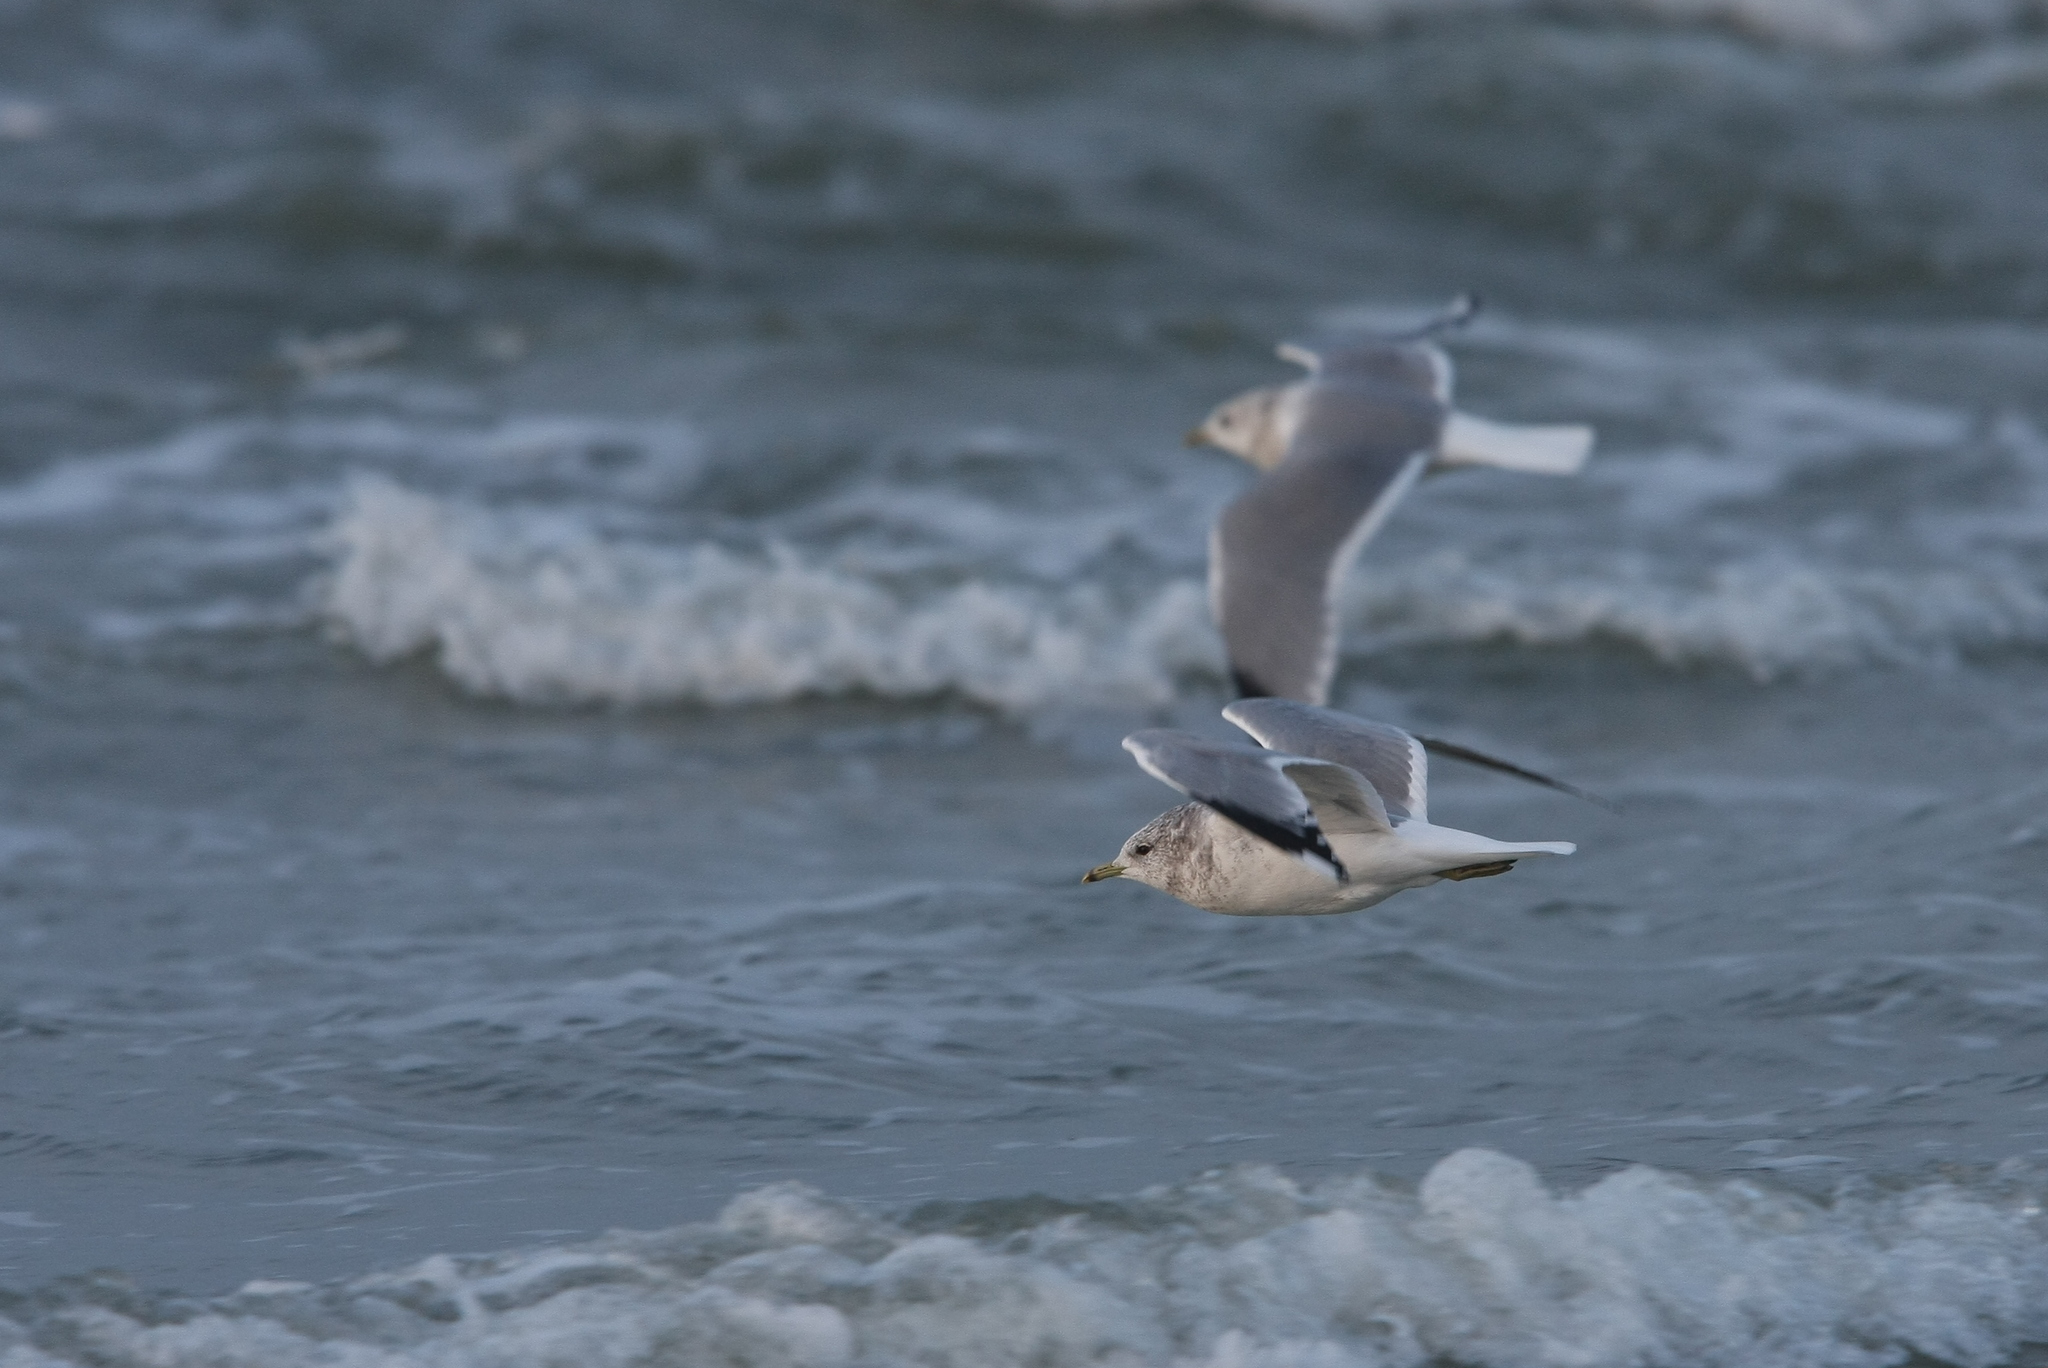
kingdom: Animalia
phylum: Chordata
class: Aves
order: Charadriiformes
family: Laridae
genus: Larus
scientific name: Larus canus
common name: Mew gull
